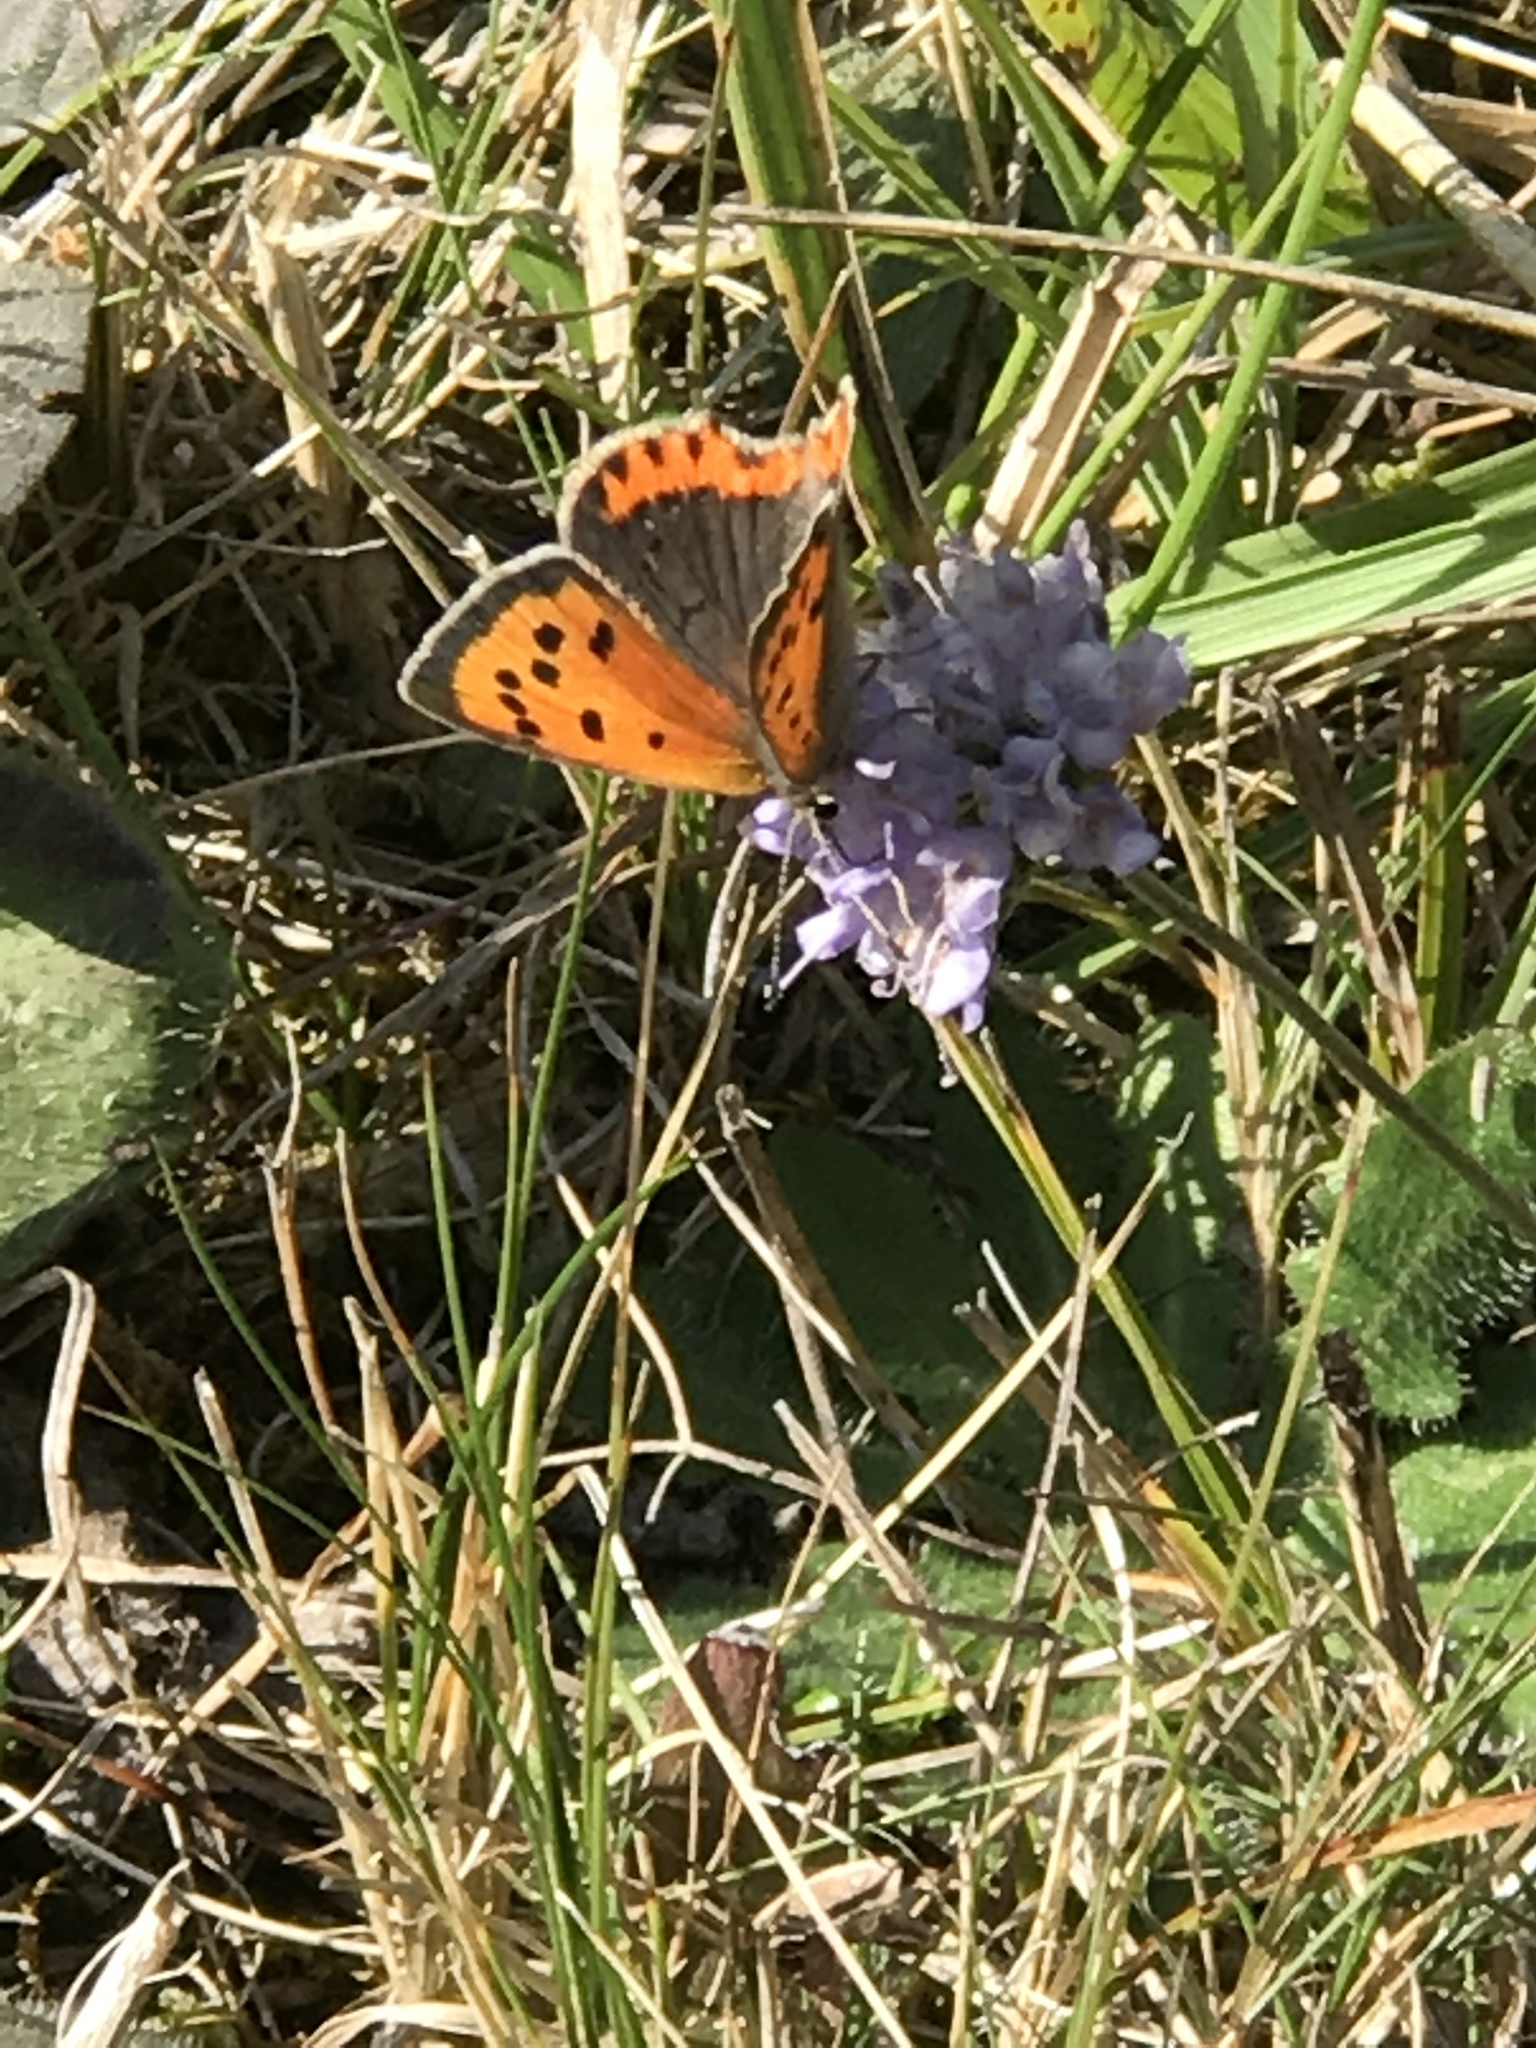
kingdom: Animalia
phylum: Arthropoda
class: Insecta
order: Lepidoptera
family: Lycaenidae
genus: Lycaena
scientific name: Lycaena phlaeas
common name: Small copper
